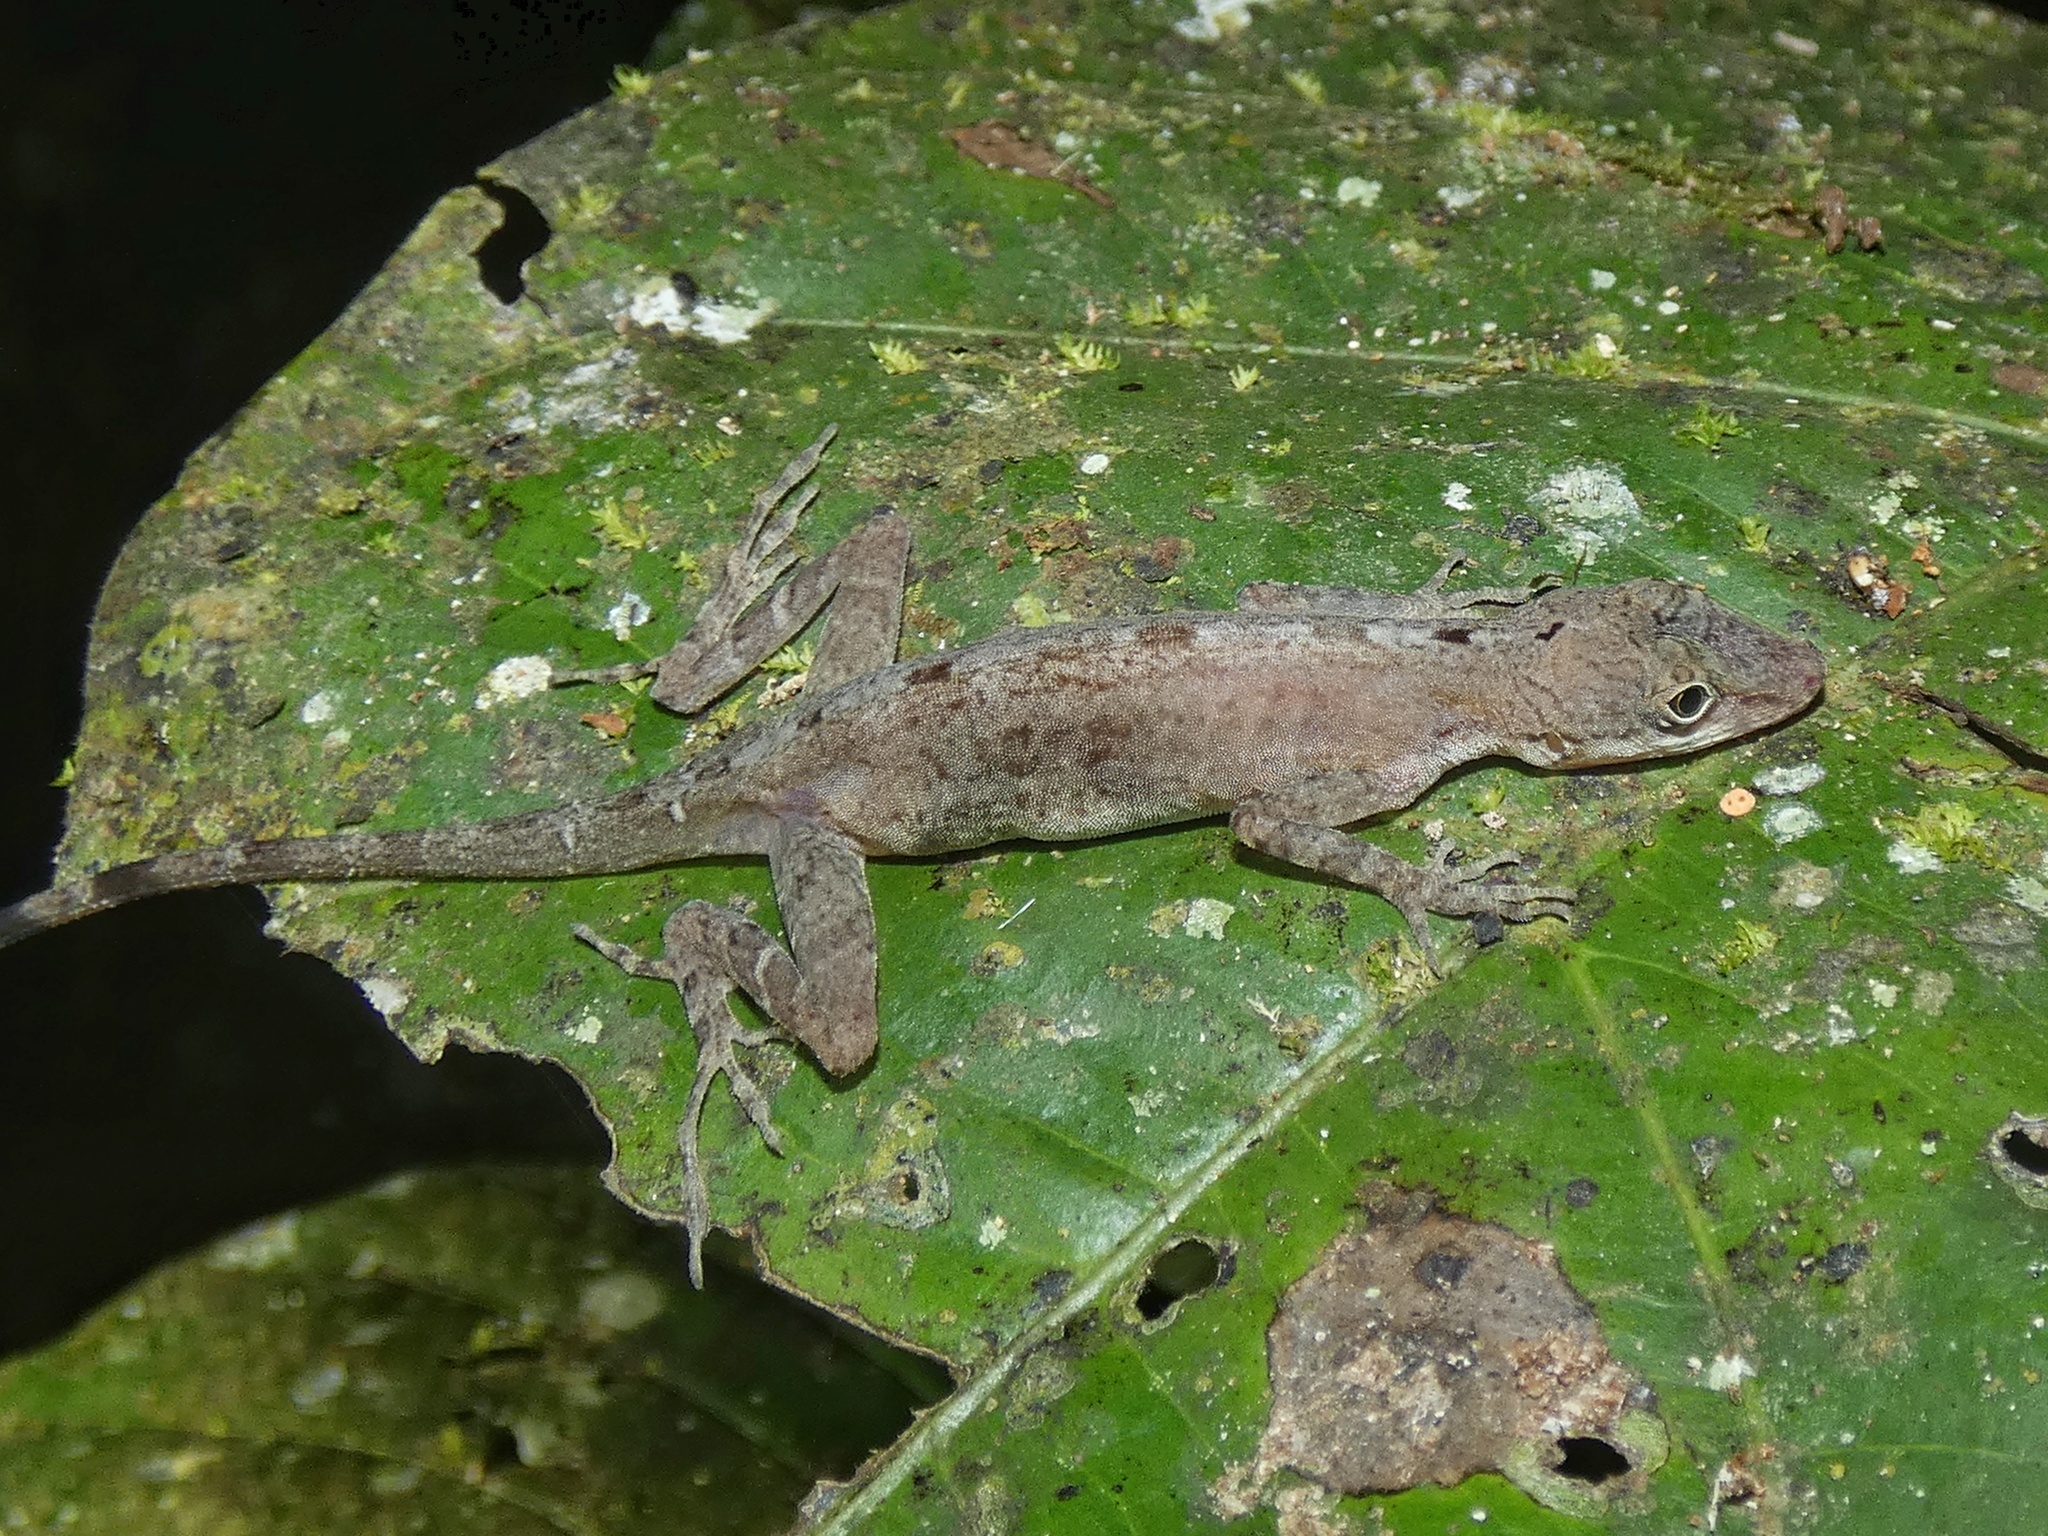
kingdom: Animalia
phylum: Chordata
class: Squamata
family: Dactyloidae
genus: Anolis
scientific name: Anolis apletophallus
